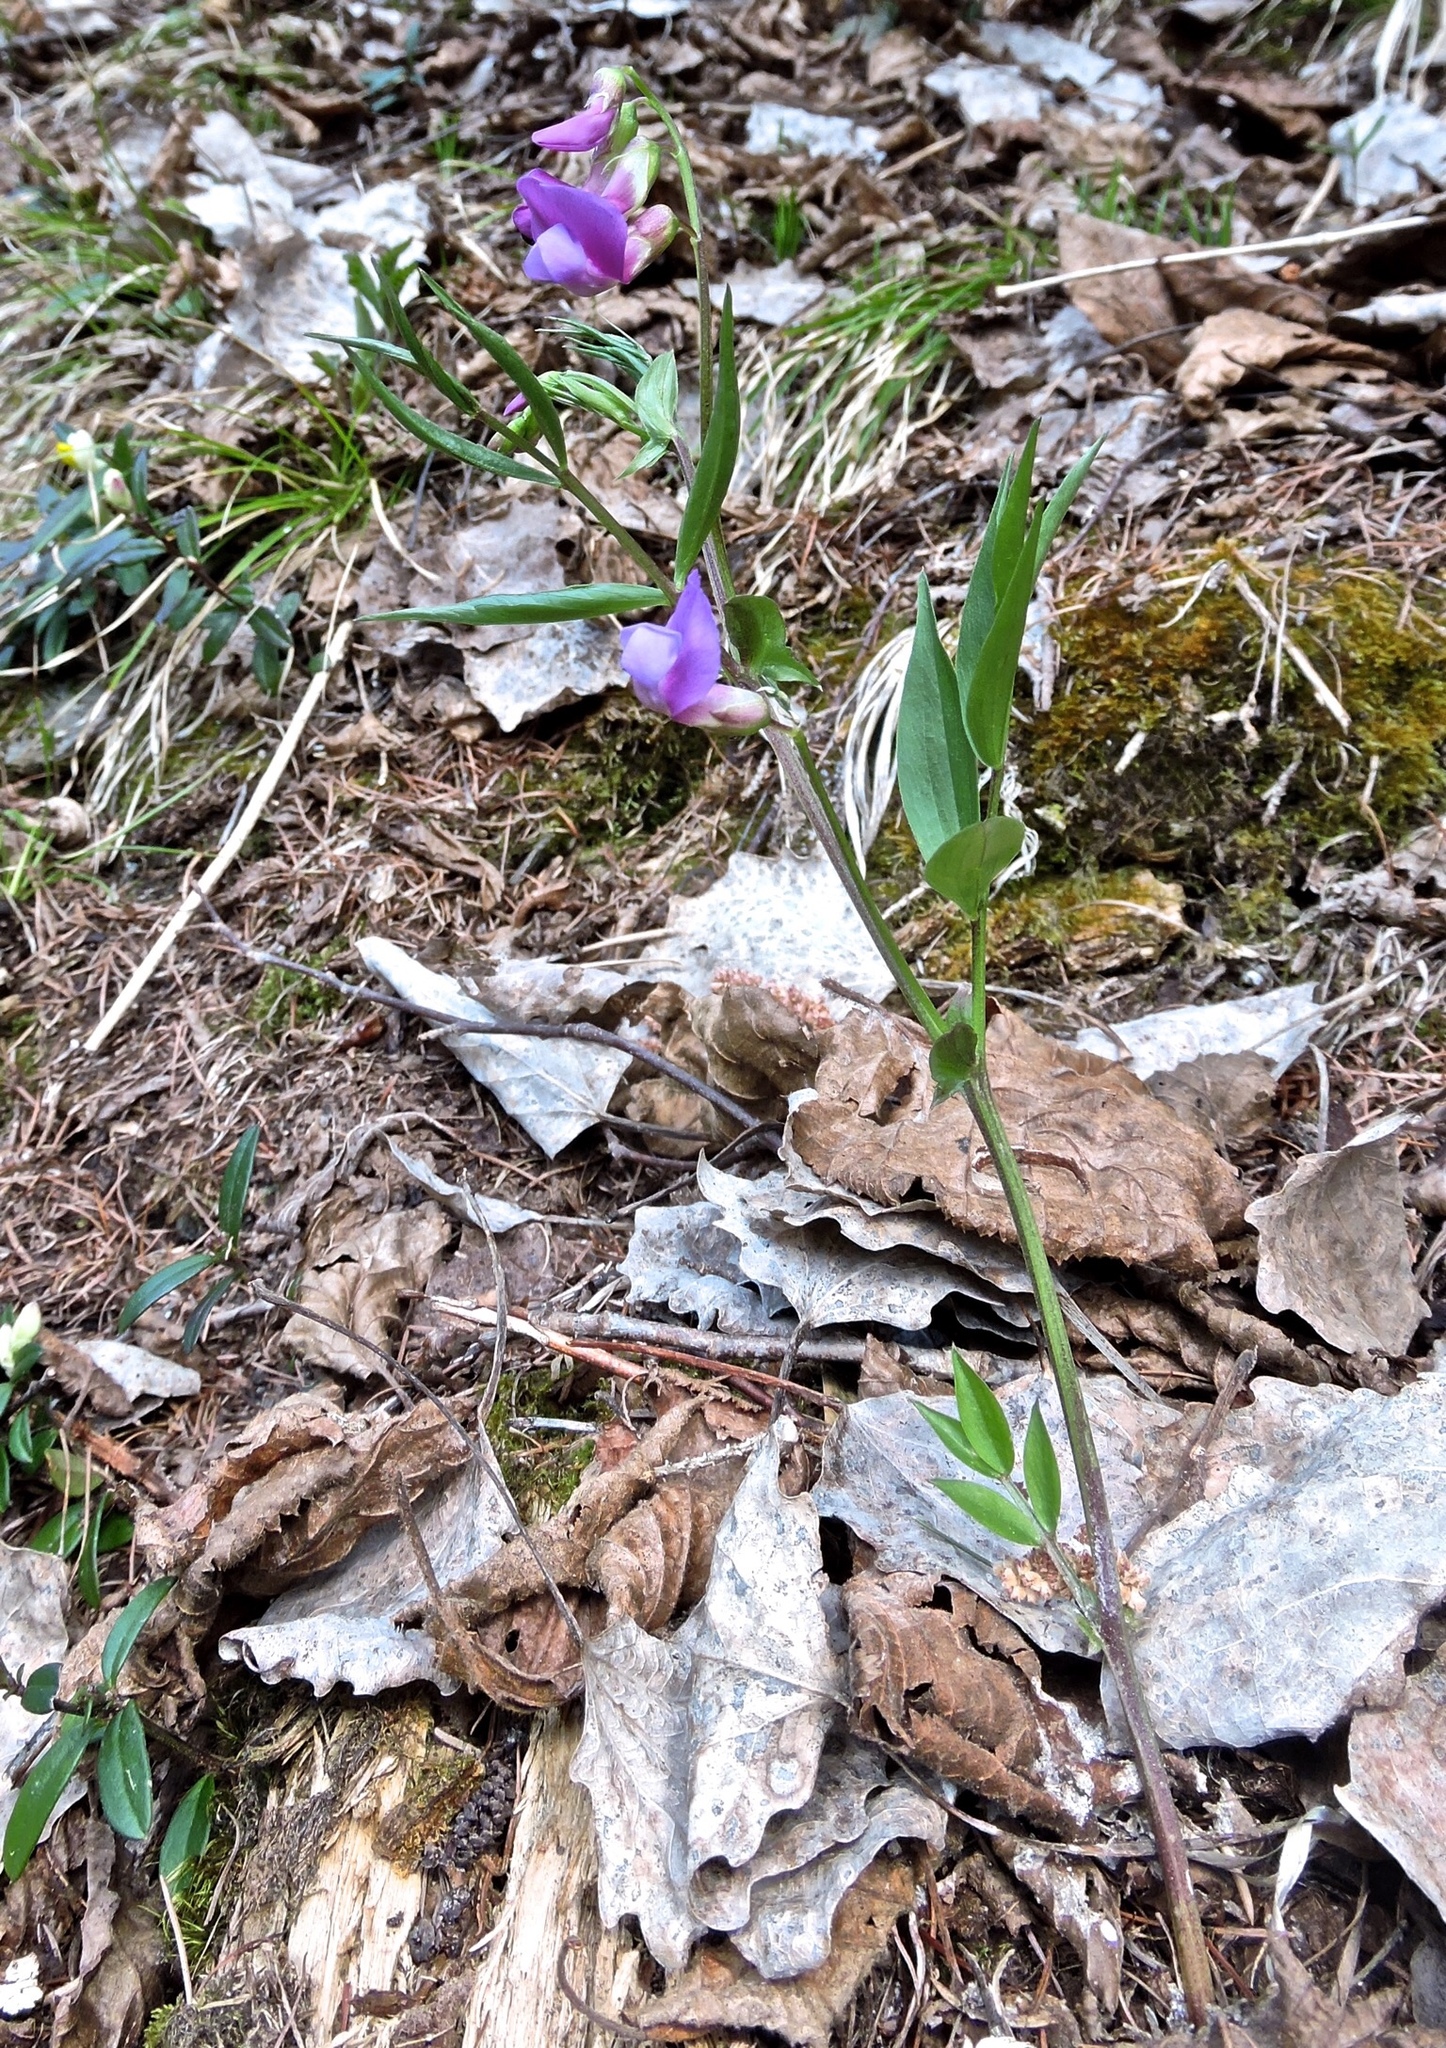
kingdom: Plantae
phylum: Tracheophyta
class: Magnoliopsida
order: Fabales
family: Fabaceae
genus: Lathyrus
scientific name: Lathyrus vernus
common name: Spring pea
